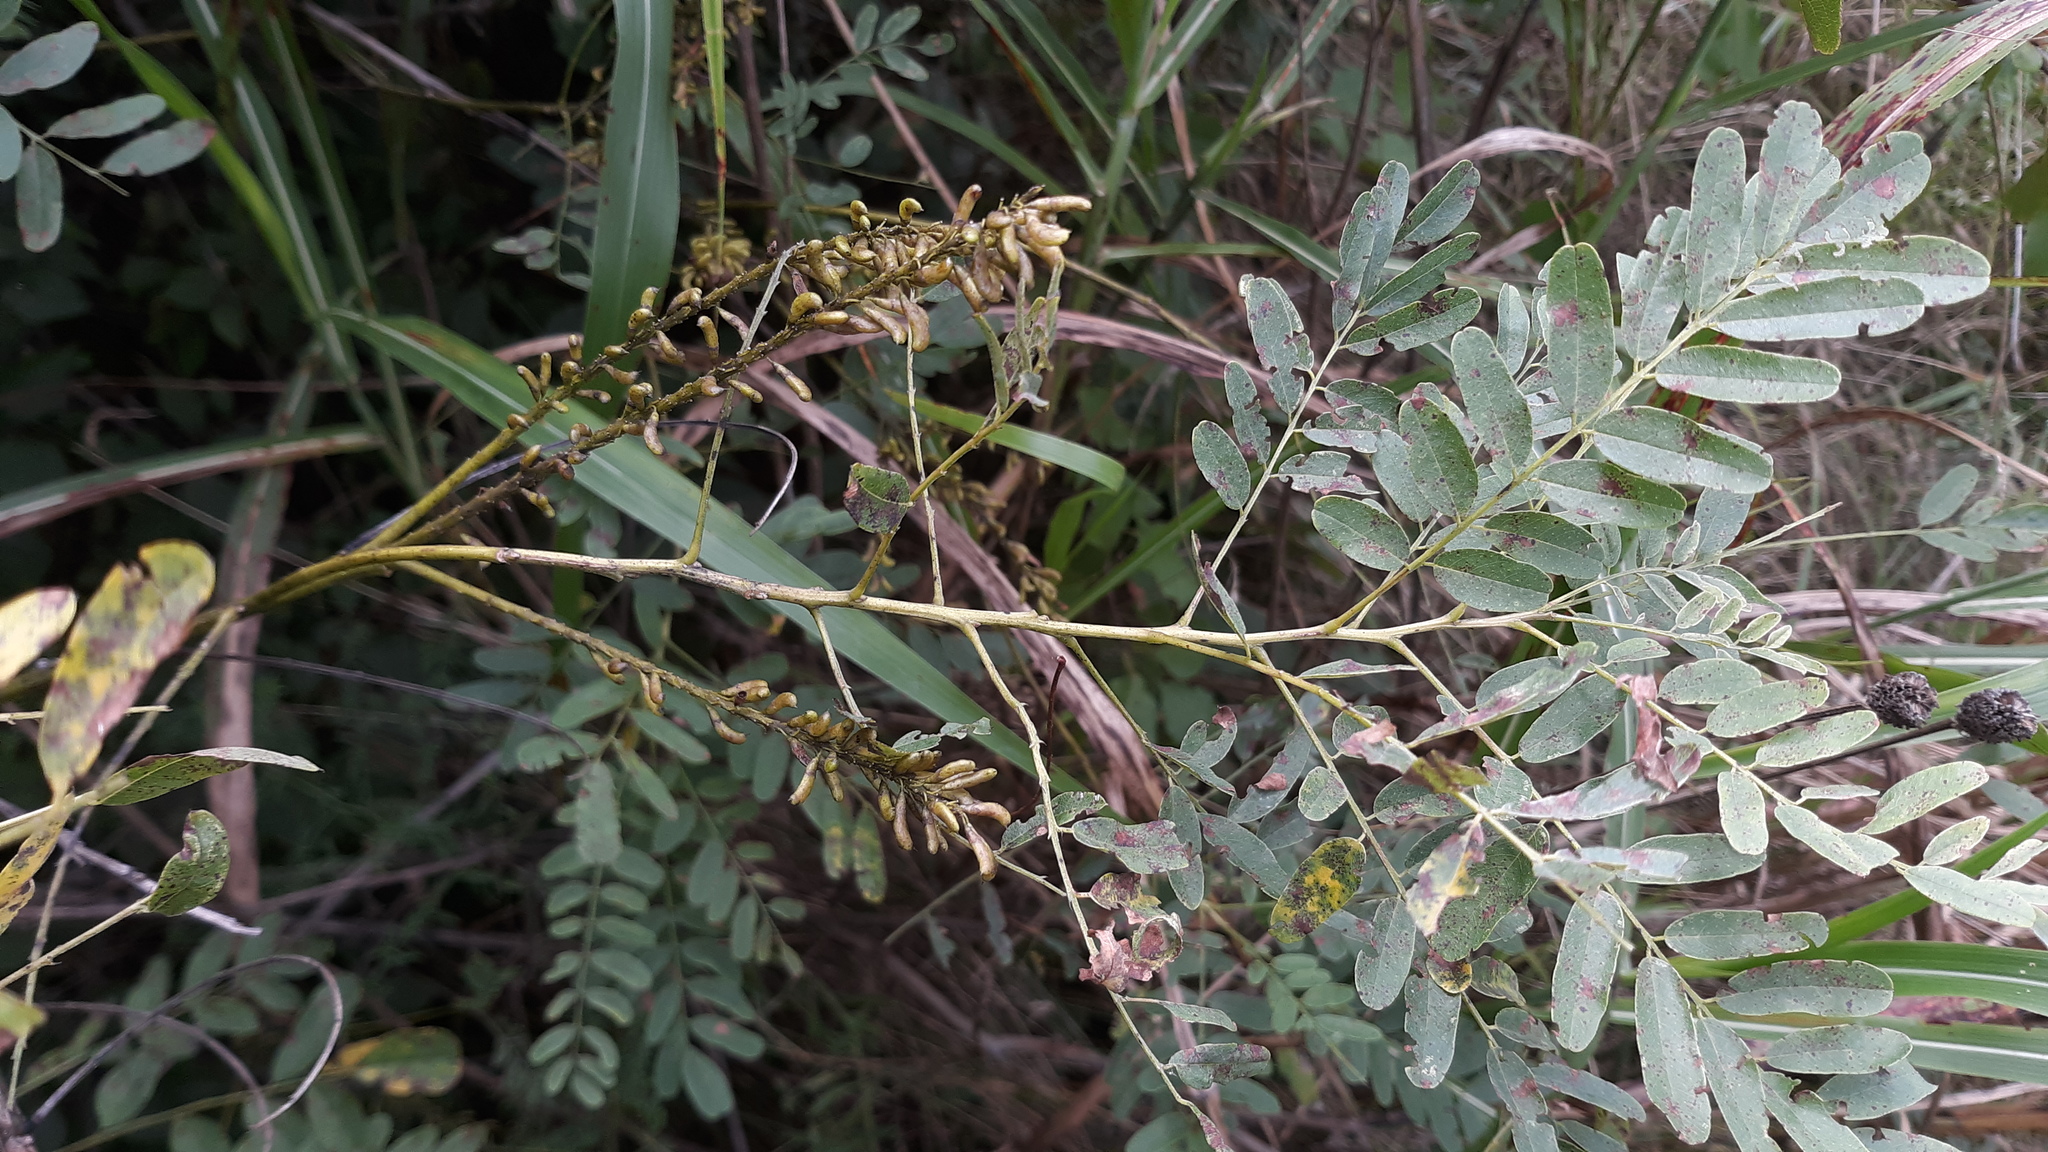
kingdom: Plantae
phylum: Tracheophyta
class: Magnoliopsida
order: Fabales
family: Fabaceae
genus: Amorpha
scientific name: Amorpha fruticosa
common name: False indigo
